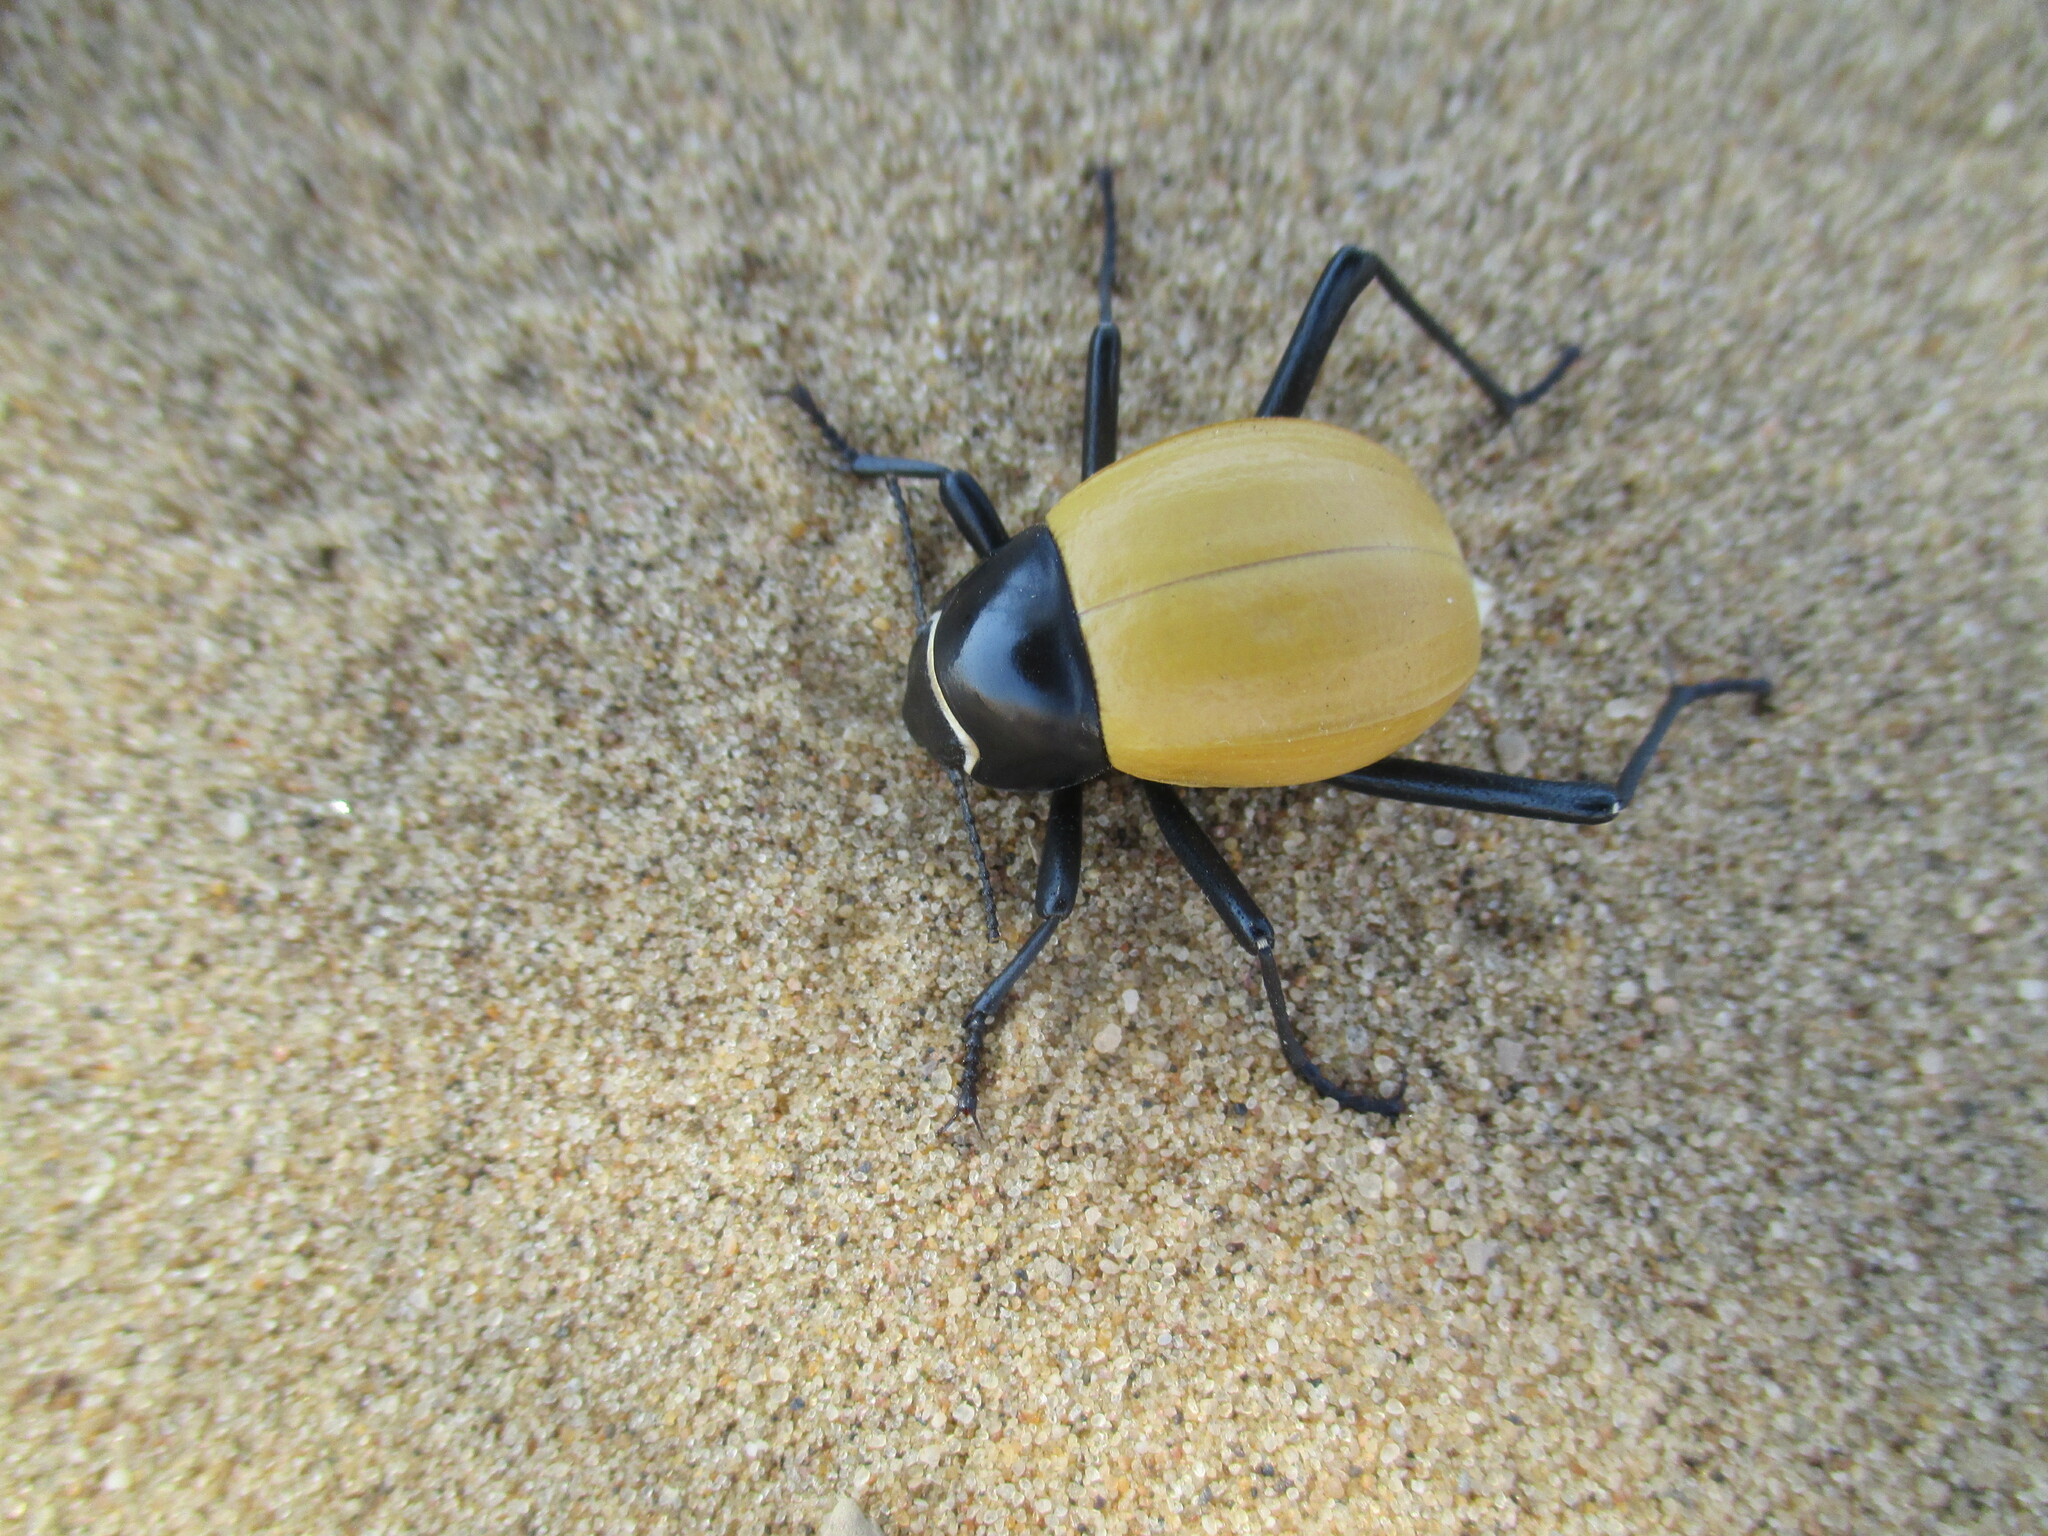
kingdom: Animalia
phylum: Arthropoda
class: Insecta
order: Coleoptera
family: Tenebrionidae
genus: Onymacris
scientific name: Onymacris
